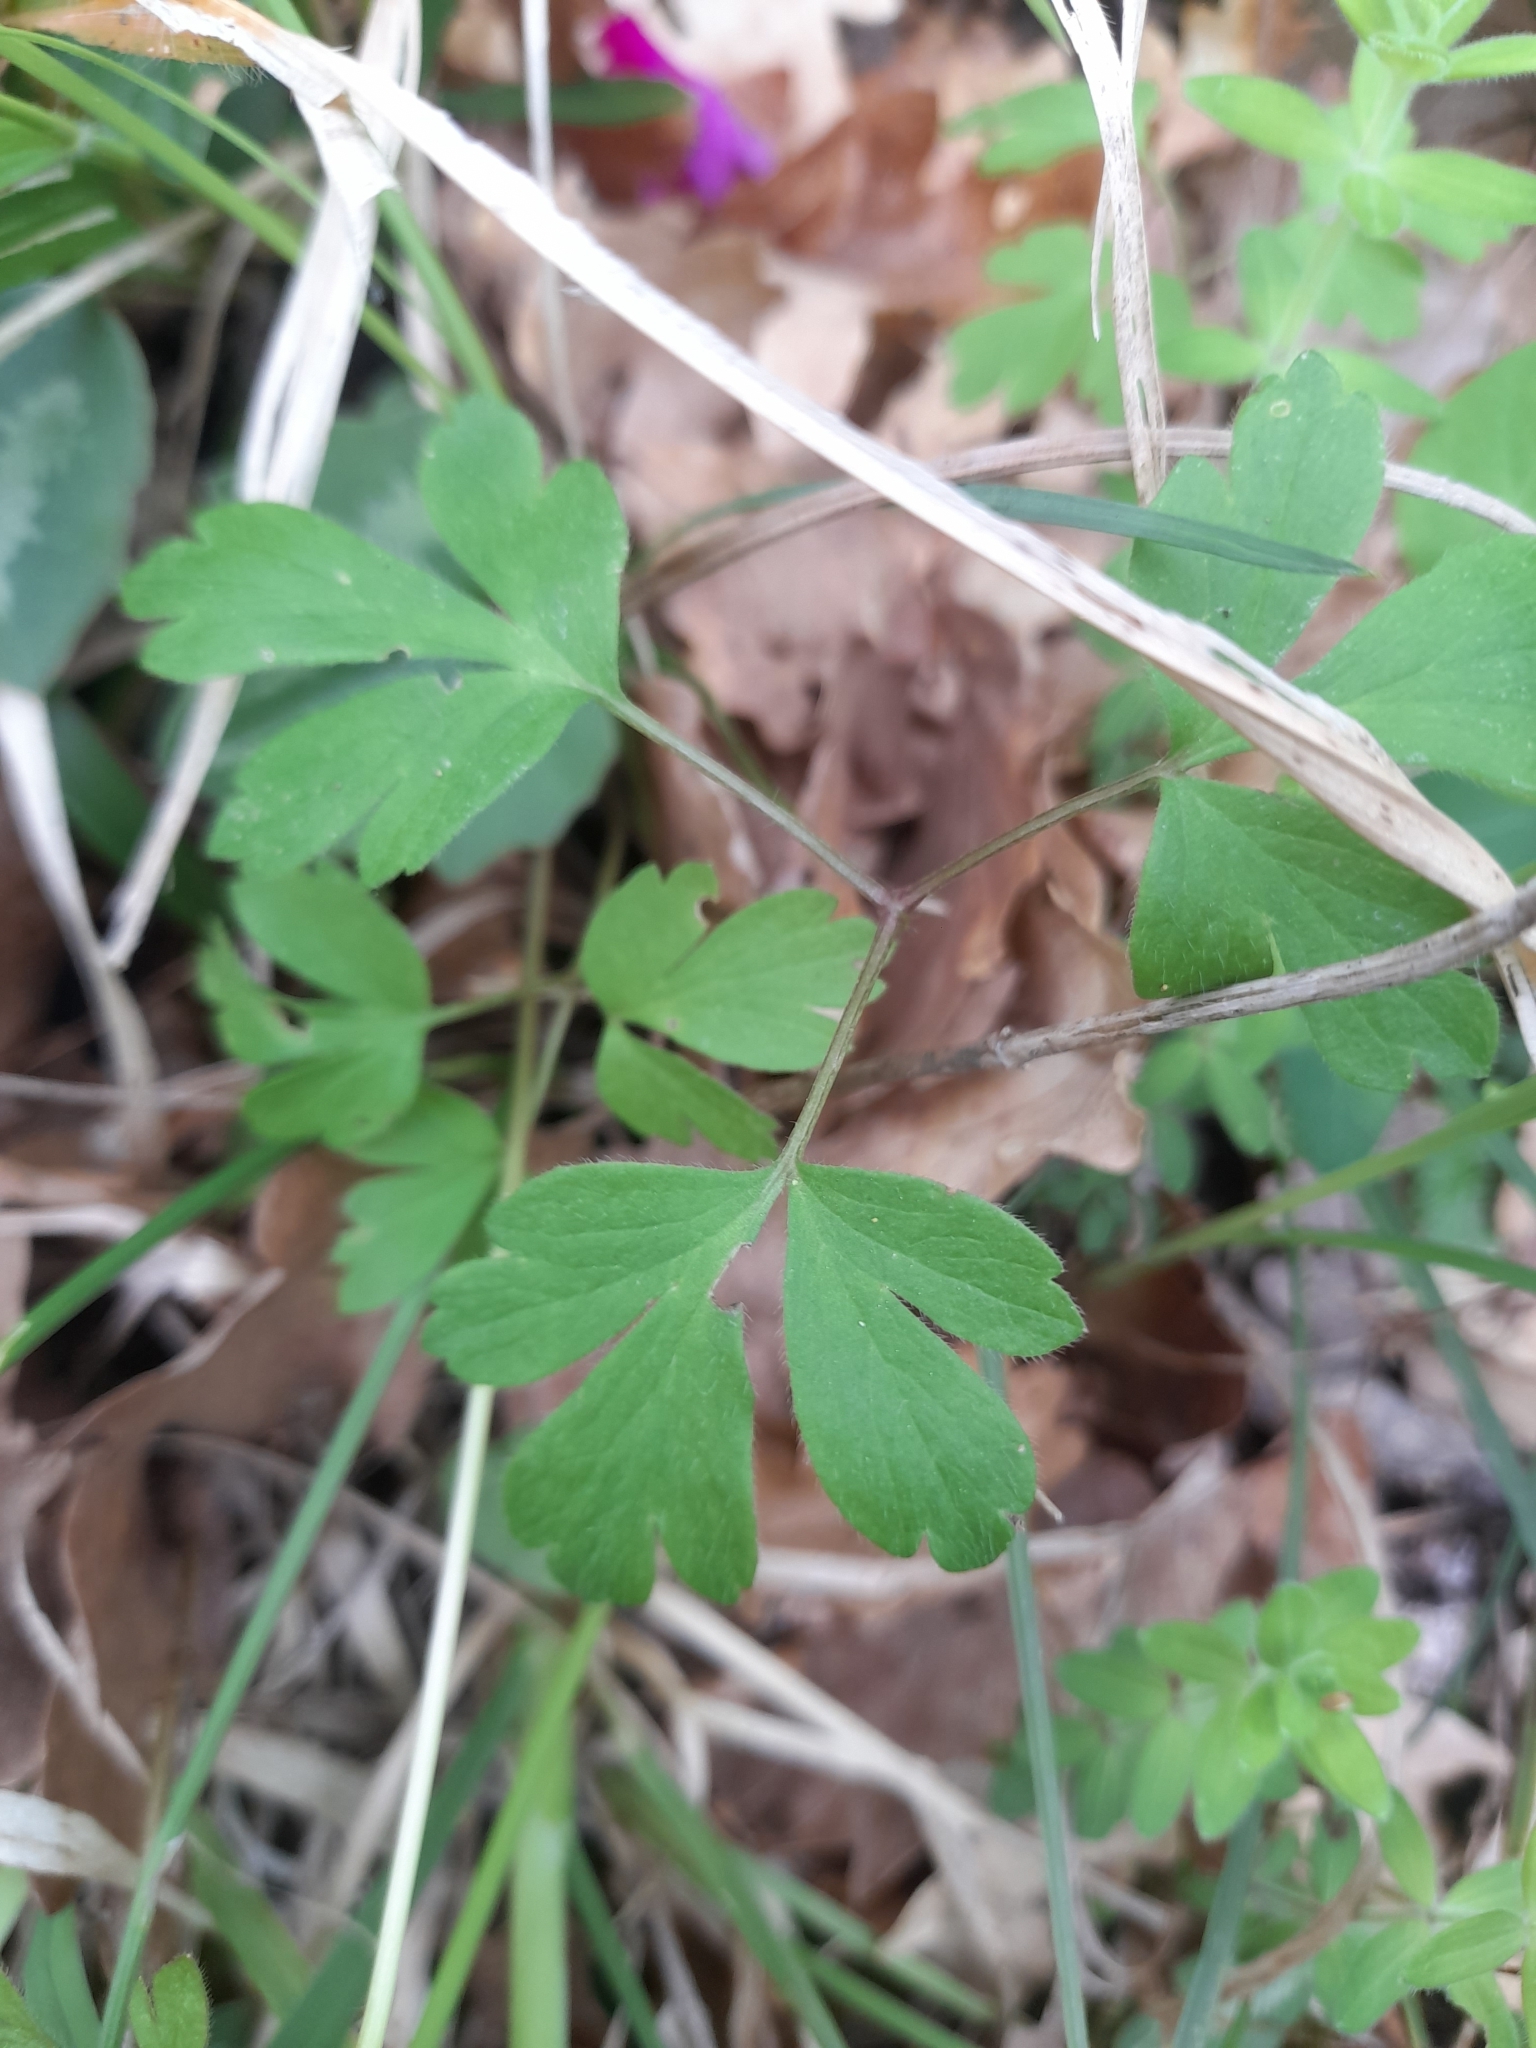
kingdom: Plantae
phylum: Tracheophyta
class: Magnoliopsida
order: Ranunculales
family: Ranunculaceae
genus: Anemone
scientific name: Anemone apennina
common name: Blue anemone
